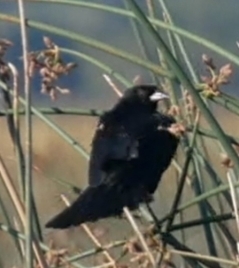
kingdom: Animalia
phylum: Chordata
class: Aves
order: Passeriformes
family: Icteridae
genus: Agelaius
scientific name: Agelaius phoeniceus
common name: Red-winged blackbird
